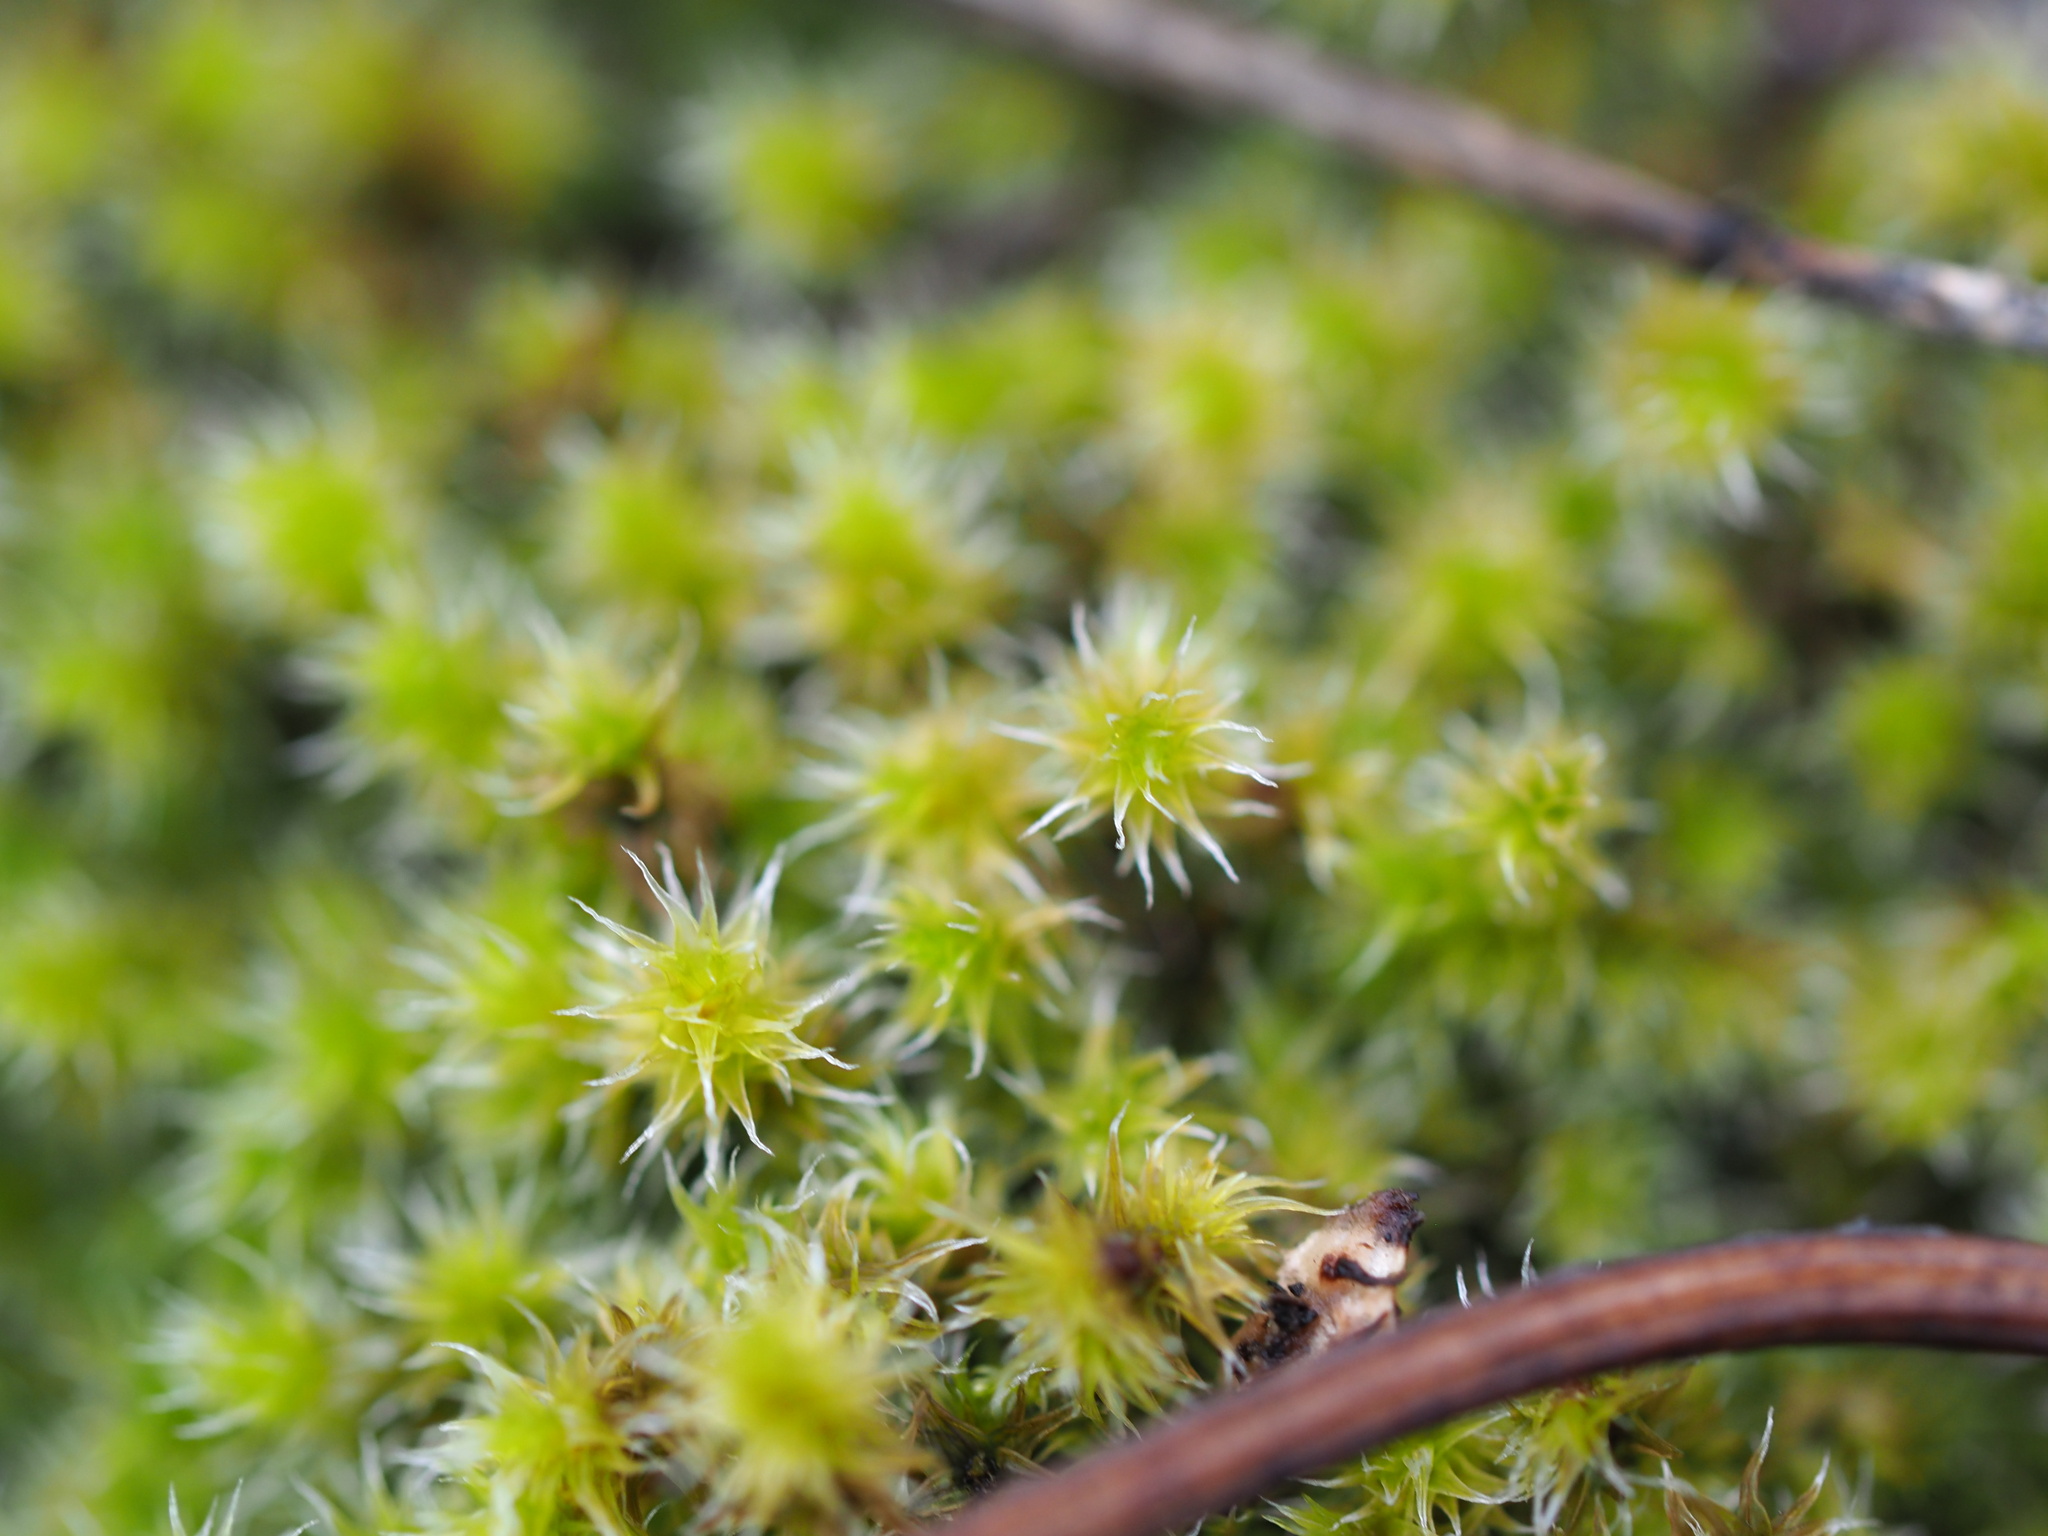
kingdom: Plantae
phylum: Bryophyta
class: Bryopsida
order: Grimmiales
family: Grimmiaceae
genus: Niphotrichum
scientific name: Niphotrichum elongatum
